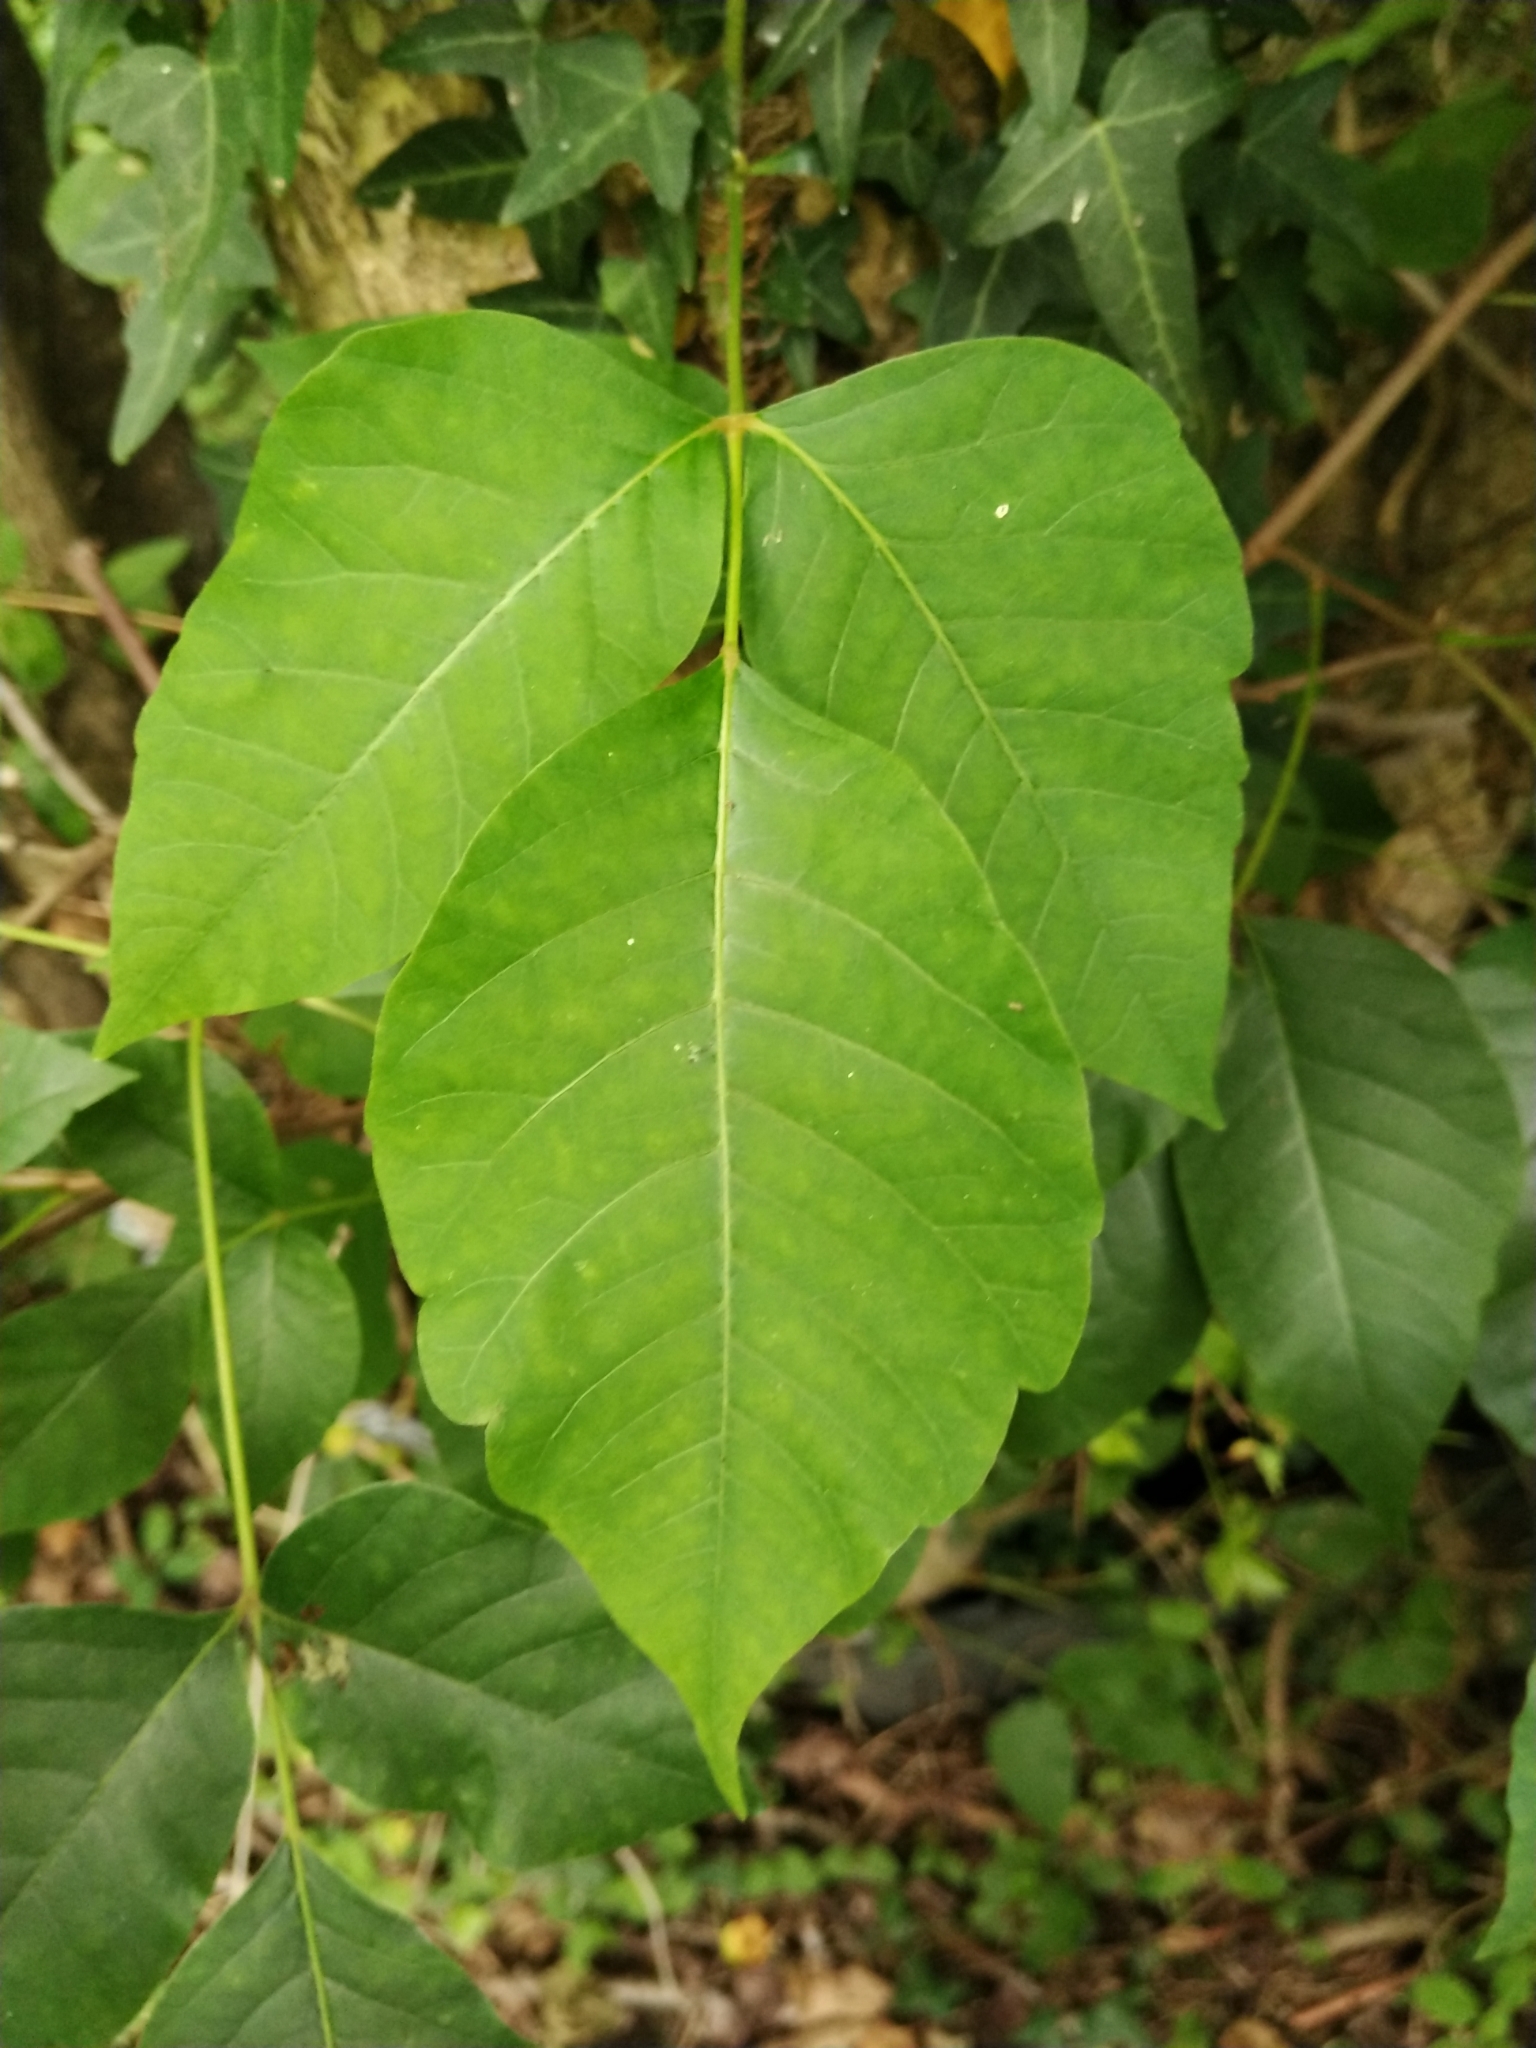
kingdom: Plantae
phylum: Tracheophyta
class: Magnoliopsida
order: Sapindales
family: Anacardiaceae
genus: Toxicodendron
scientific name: Toxicodendron radicans
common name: Poison ivy
